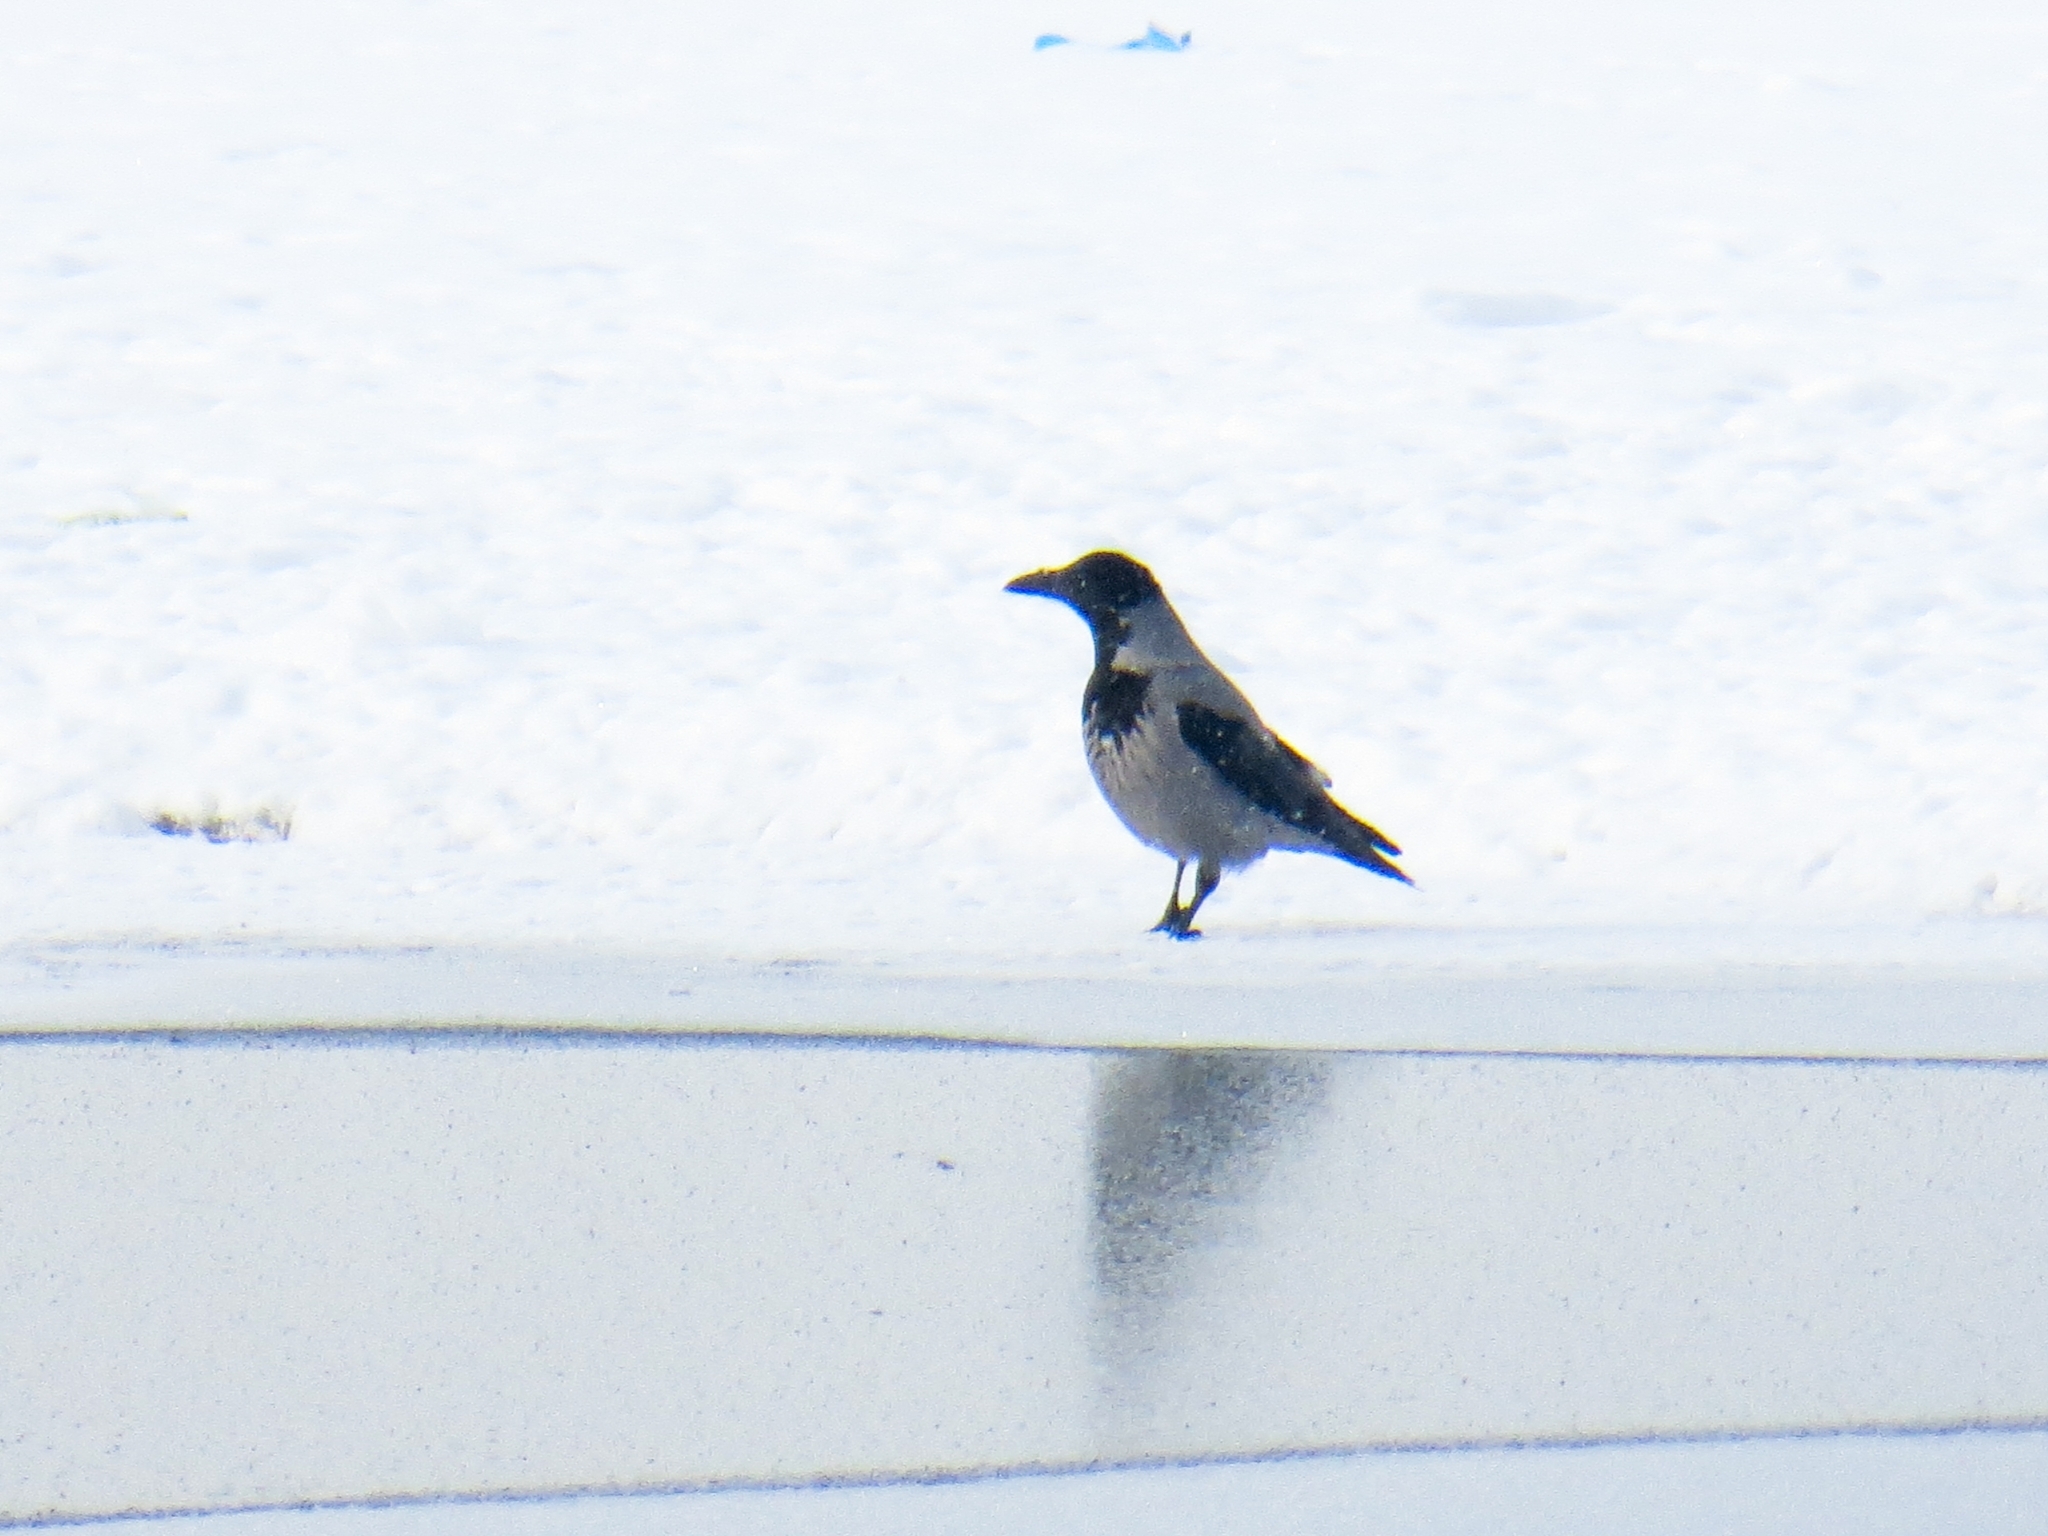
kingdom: Animalia
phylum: Chordata
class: Aves
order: Passeriformes
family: Corvidae
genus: Corvus
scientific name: Corvus cornix
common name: Hooded crow
